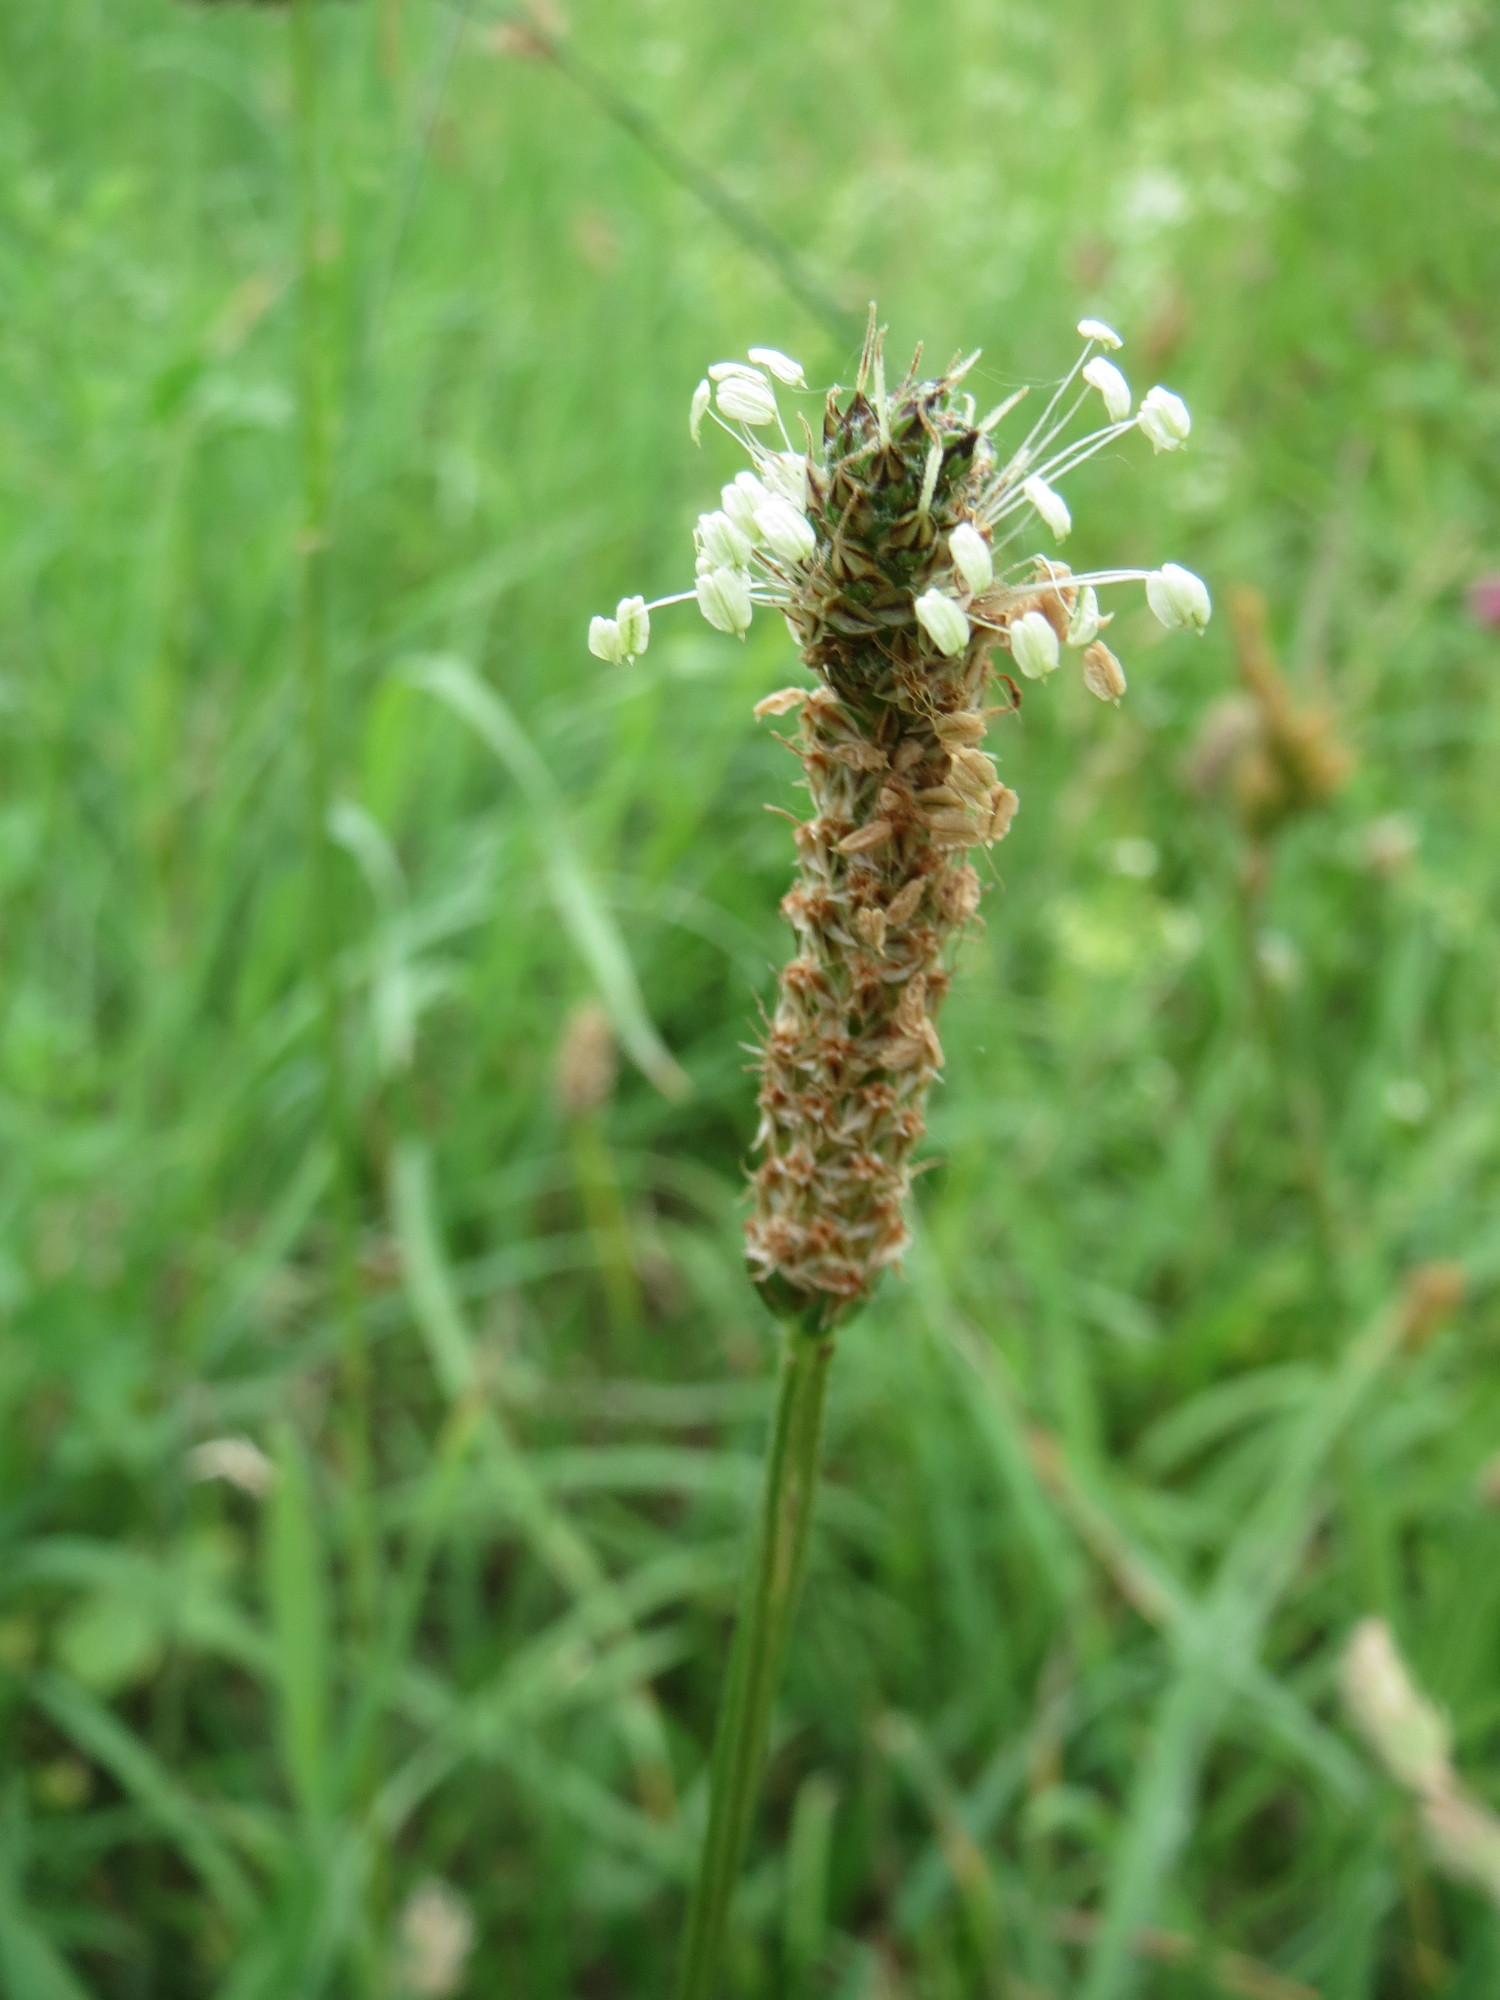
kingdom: Plantae
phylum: Tracheophyta
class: Magnoliopsida
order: Lamiales
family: Plantaginaceae
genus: Plantago
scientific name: Plantago lanceolata
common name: Ribwort plantain
